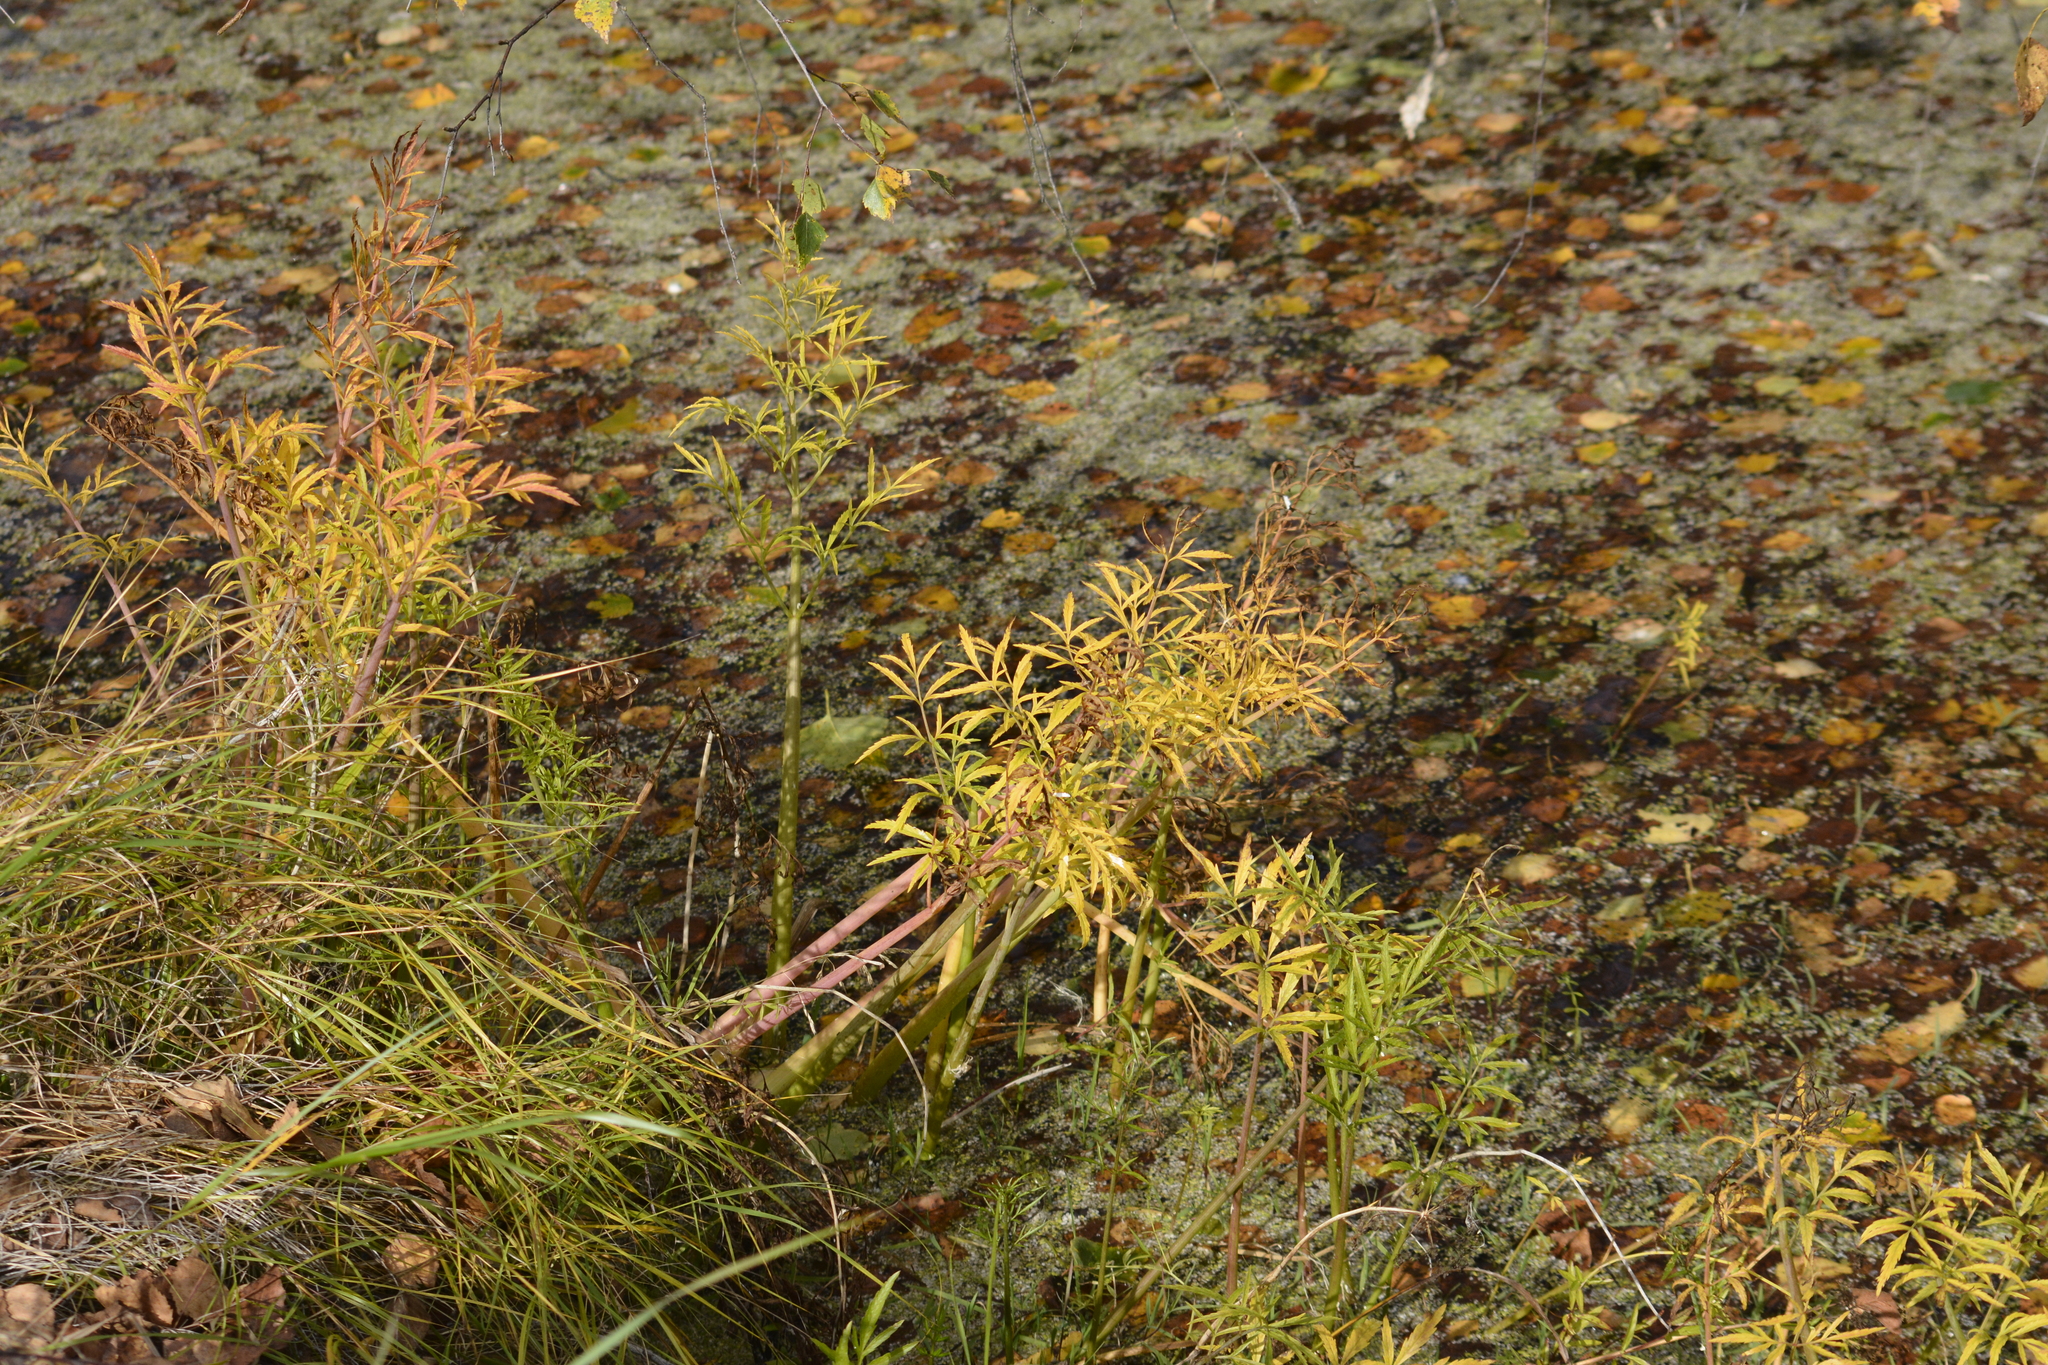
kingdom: Plantae
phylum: Tracheophyta
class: Magnoliopsida
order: Apiales
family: Apiaceae
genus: Cicuta
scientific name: Cicuta virosa
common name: Cowbane
